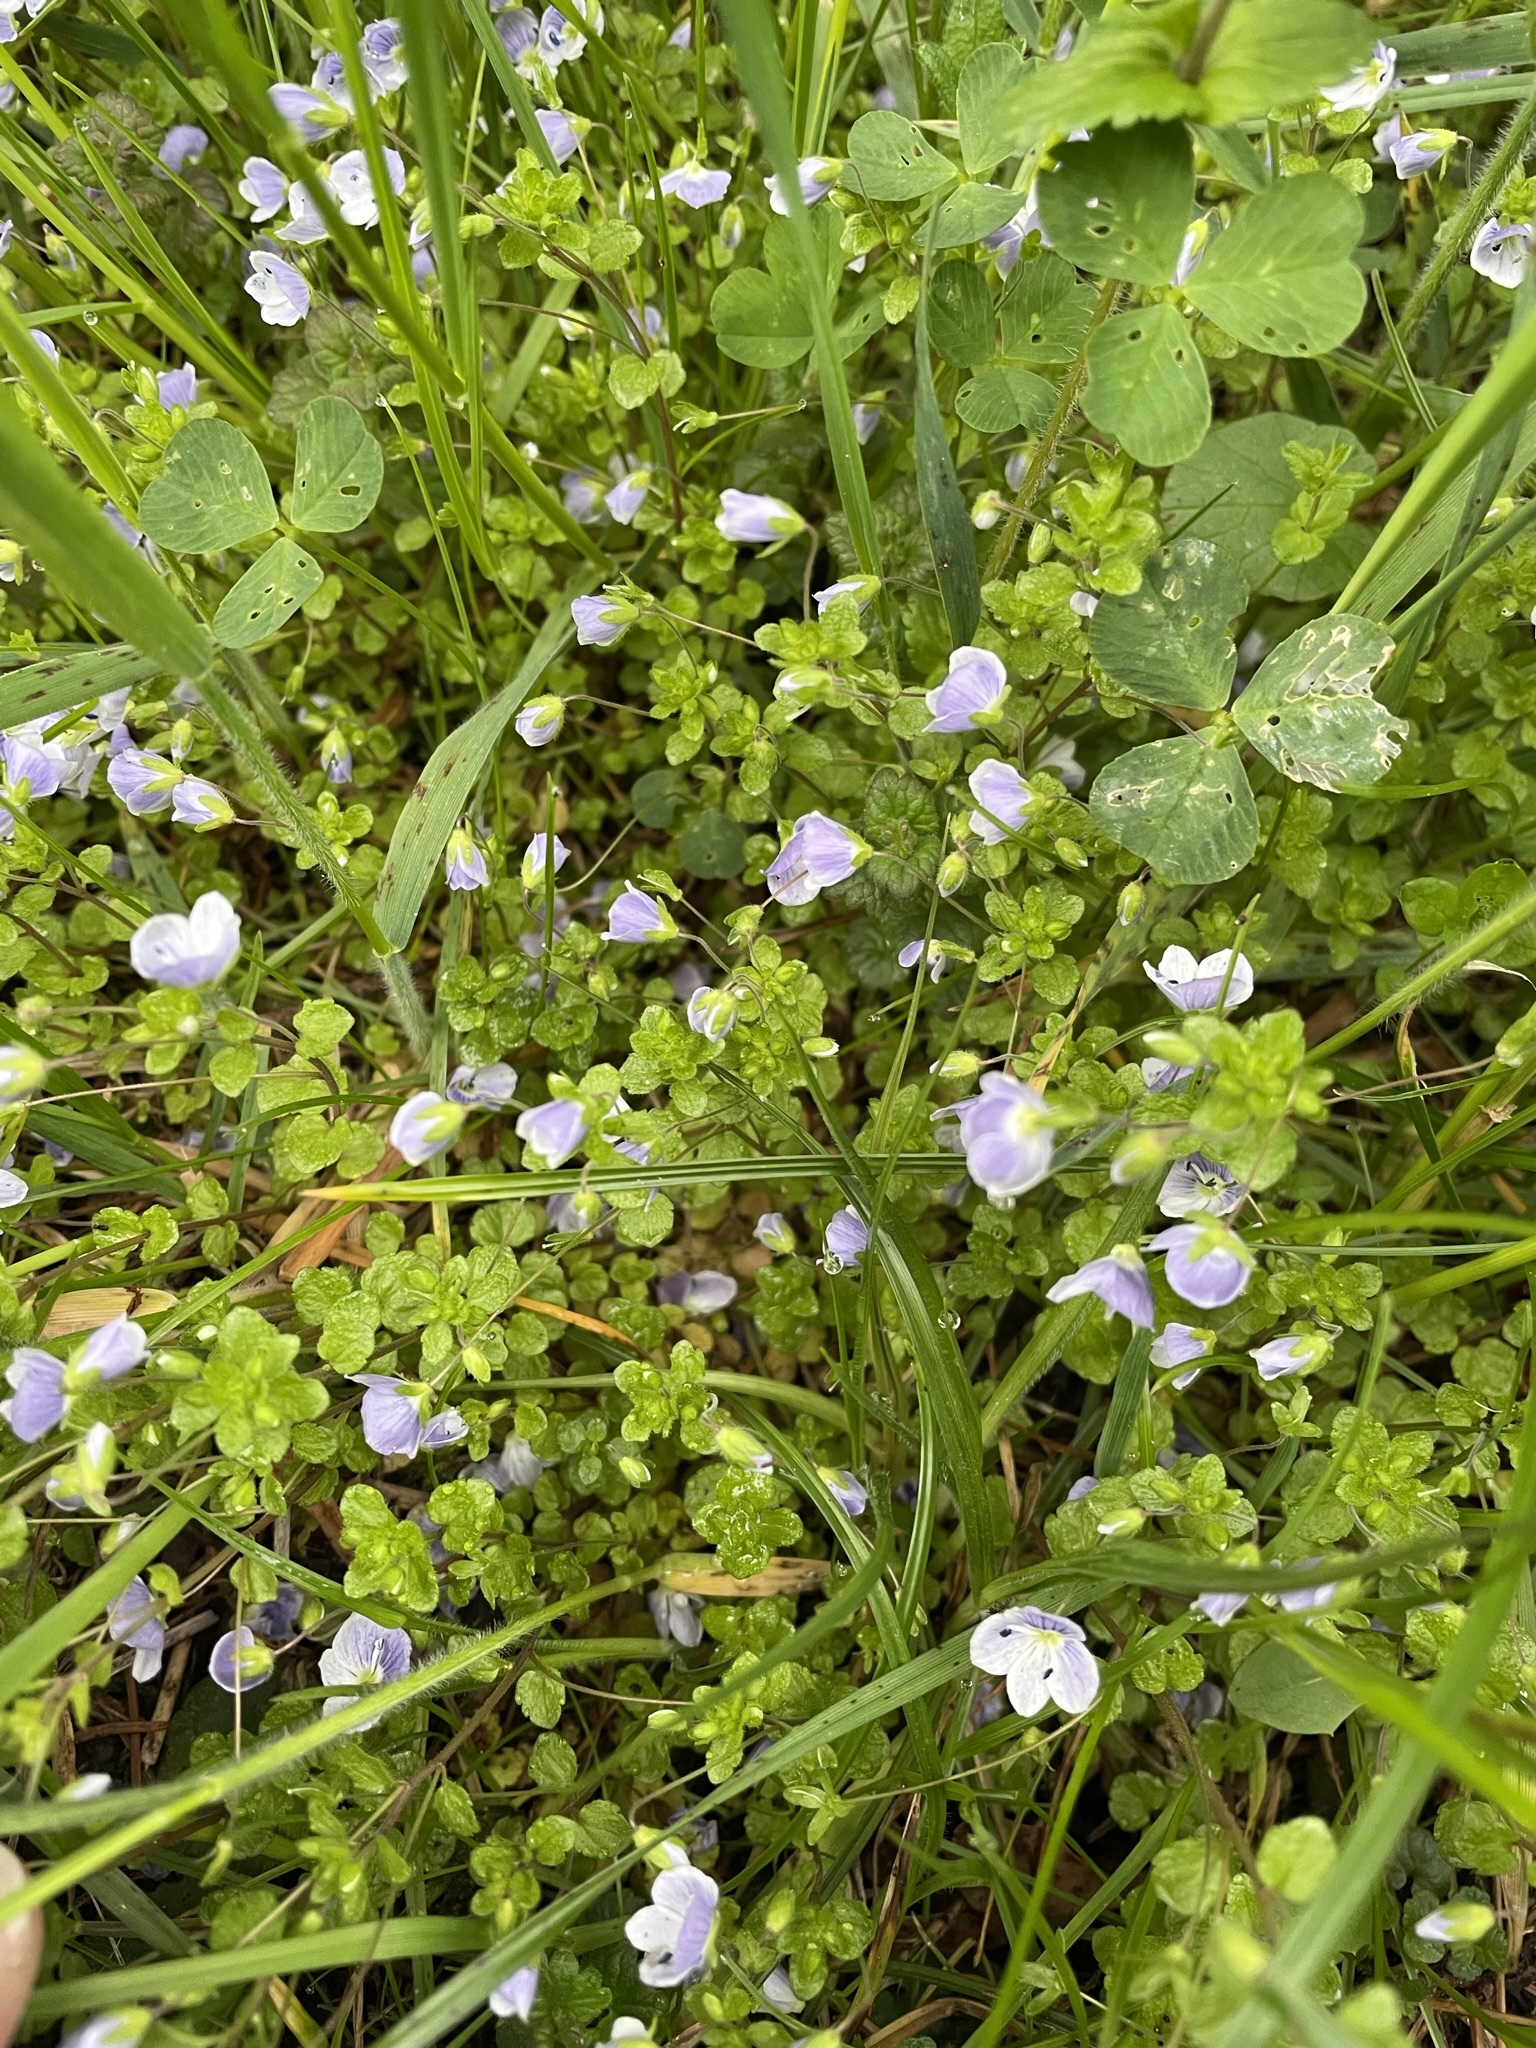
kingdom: Plantae
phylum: Tracheophyta
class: Magnoliopsida
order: Lamiales
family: Plantaginaceae
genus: Veronica
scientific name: Veronica filiformis
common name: Slender speedwell
